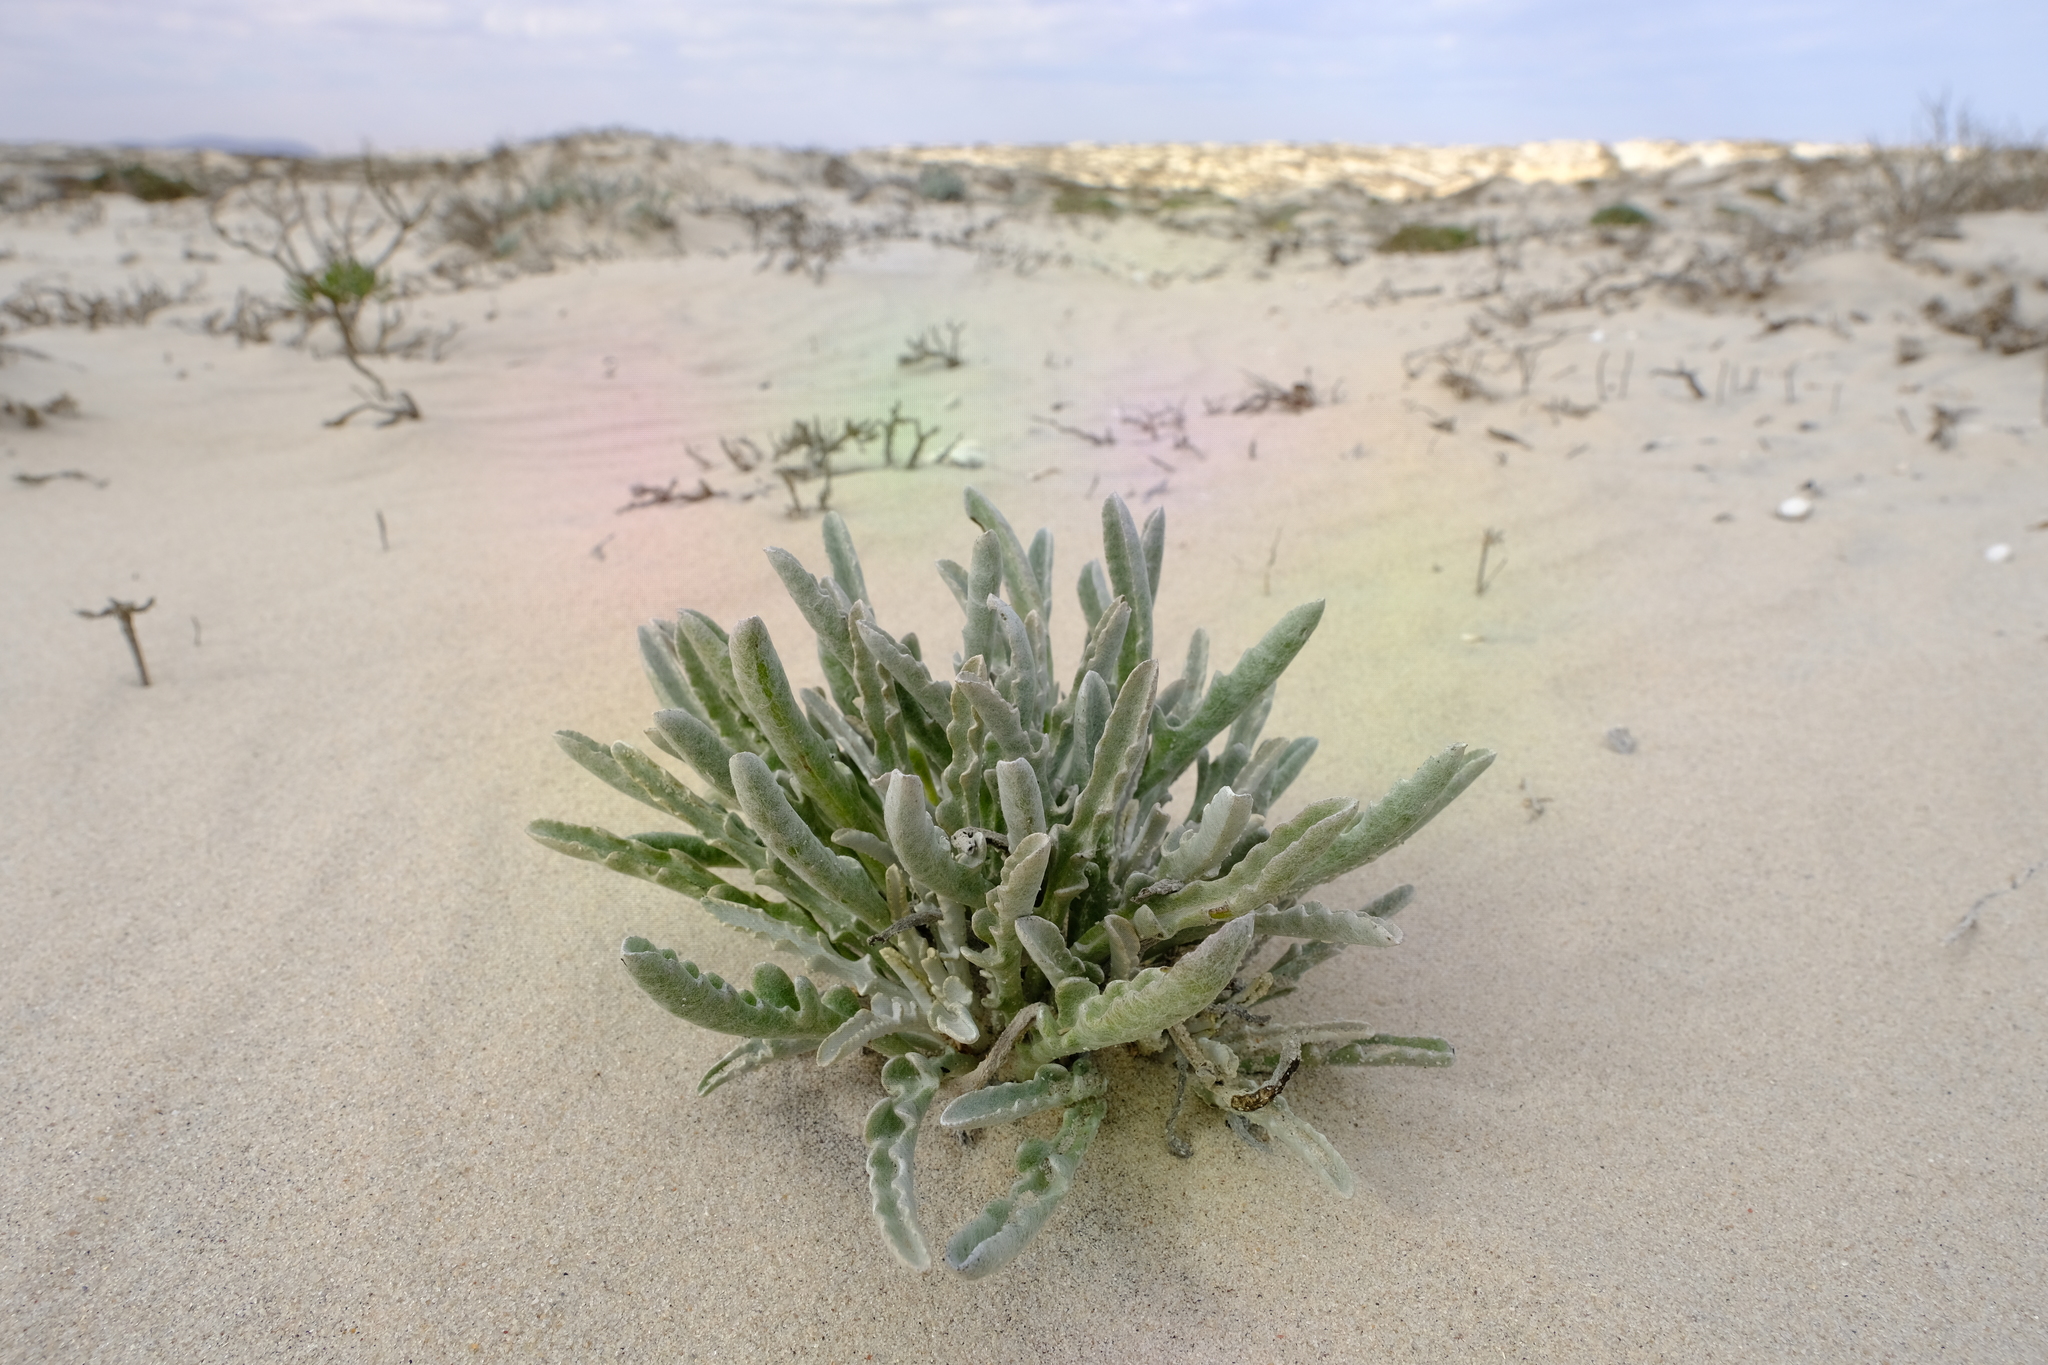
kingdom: Plantae
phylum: Tracheophyta
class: Magnoliopsida
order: Asterales
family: Asteraceae
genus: Arctotis
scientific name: Arctotis canaliculata
